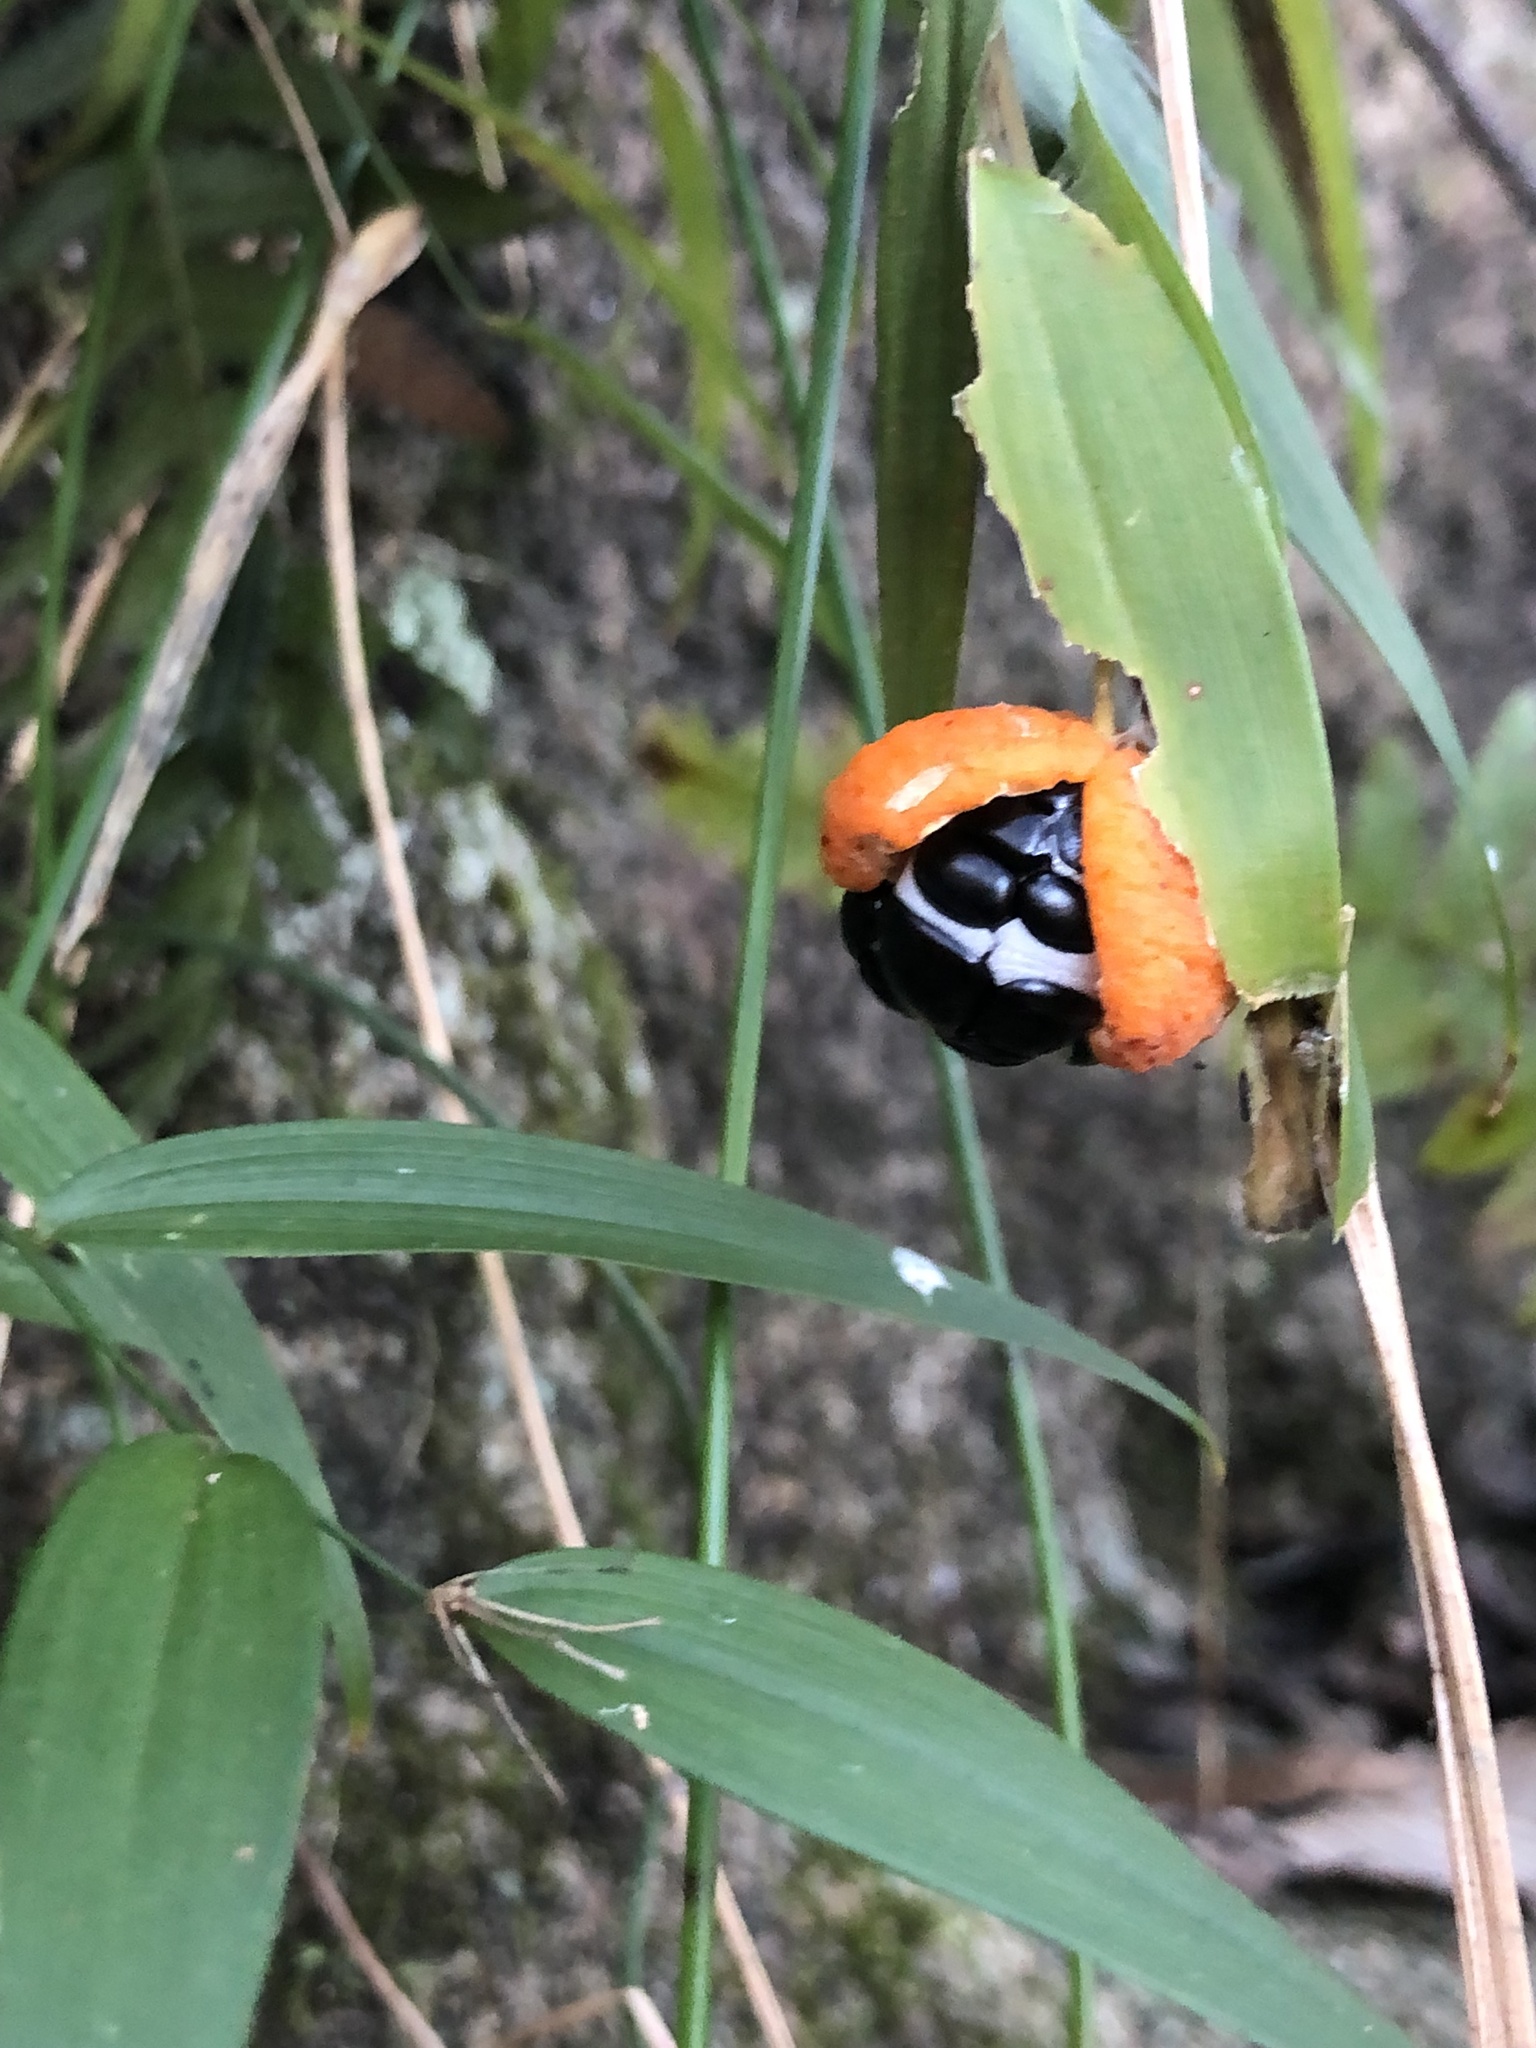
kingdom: Plantae
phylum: Tracheophyta
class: Liliopsida
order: Asparagales
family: Asparagaceae
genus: Eustrephus
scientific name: Eustrephus latifolius
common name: Orangevine
